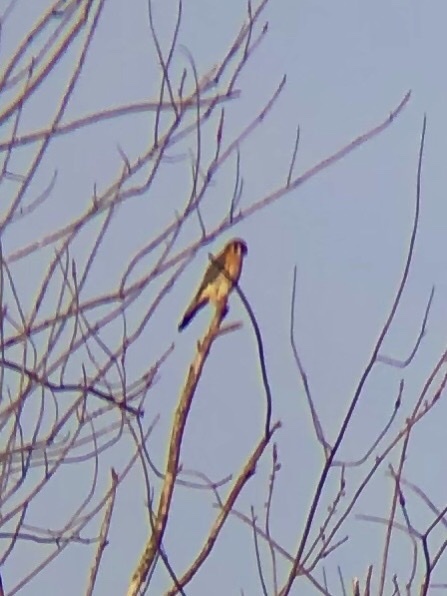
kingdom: Animalia
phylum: Chordata
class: Aves
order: Falconiformes
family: Falconidae
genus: Falco
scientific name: Falco sparverius
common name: American kestrel
